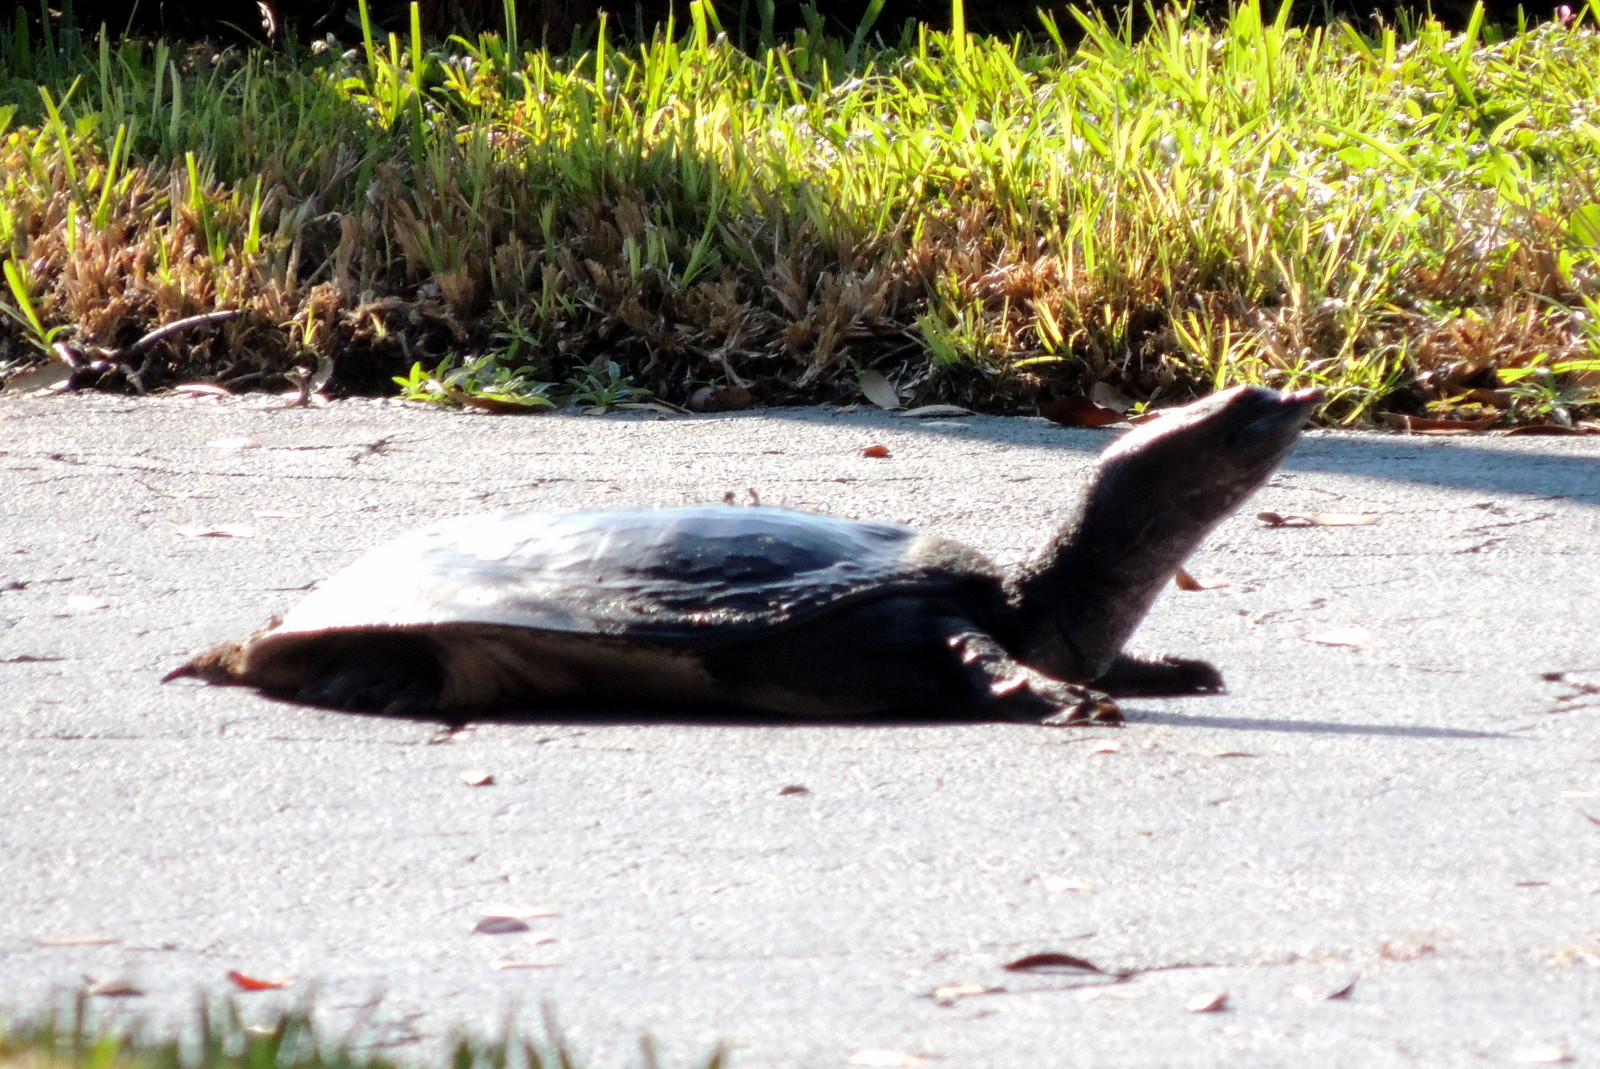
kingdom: Animalia
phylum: Chordata
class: Testudines
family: Trionychidae
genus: Apalone
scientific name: Apalone ferox
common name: Florida softshell turtle
